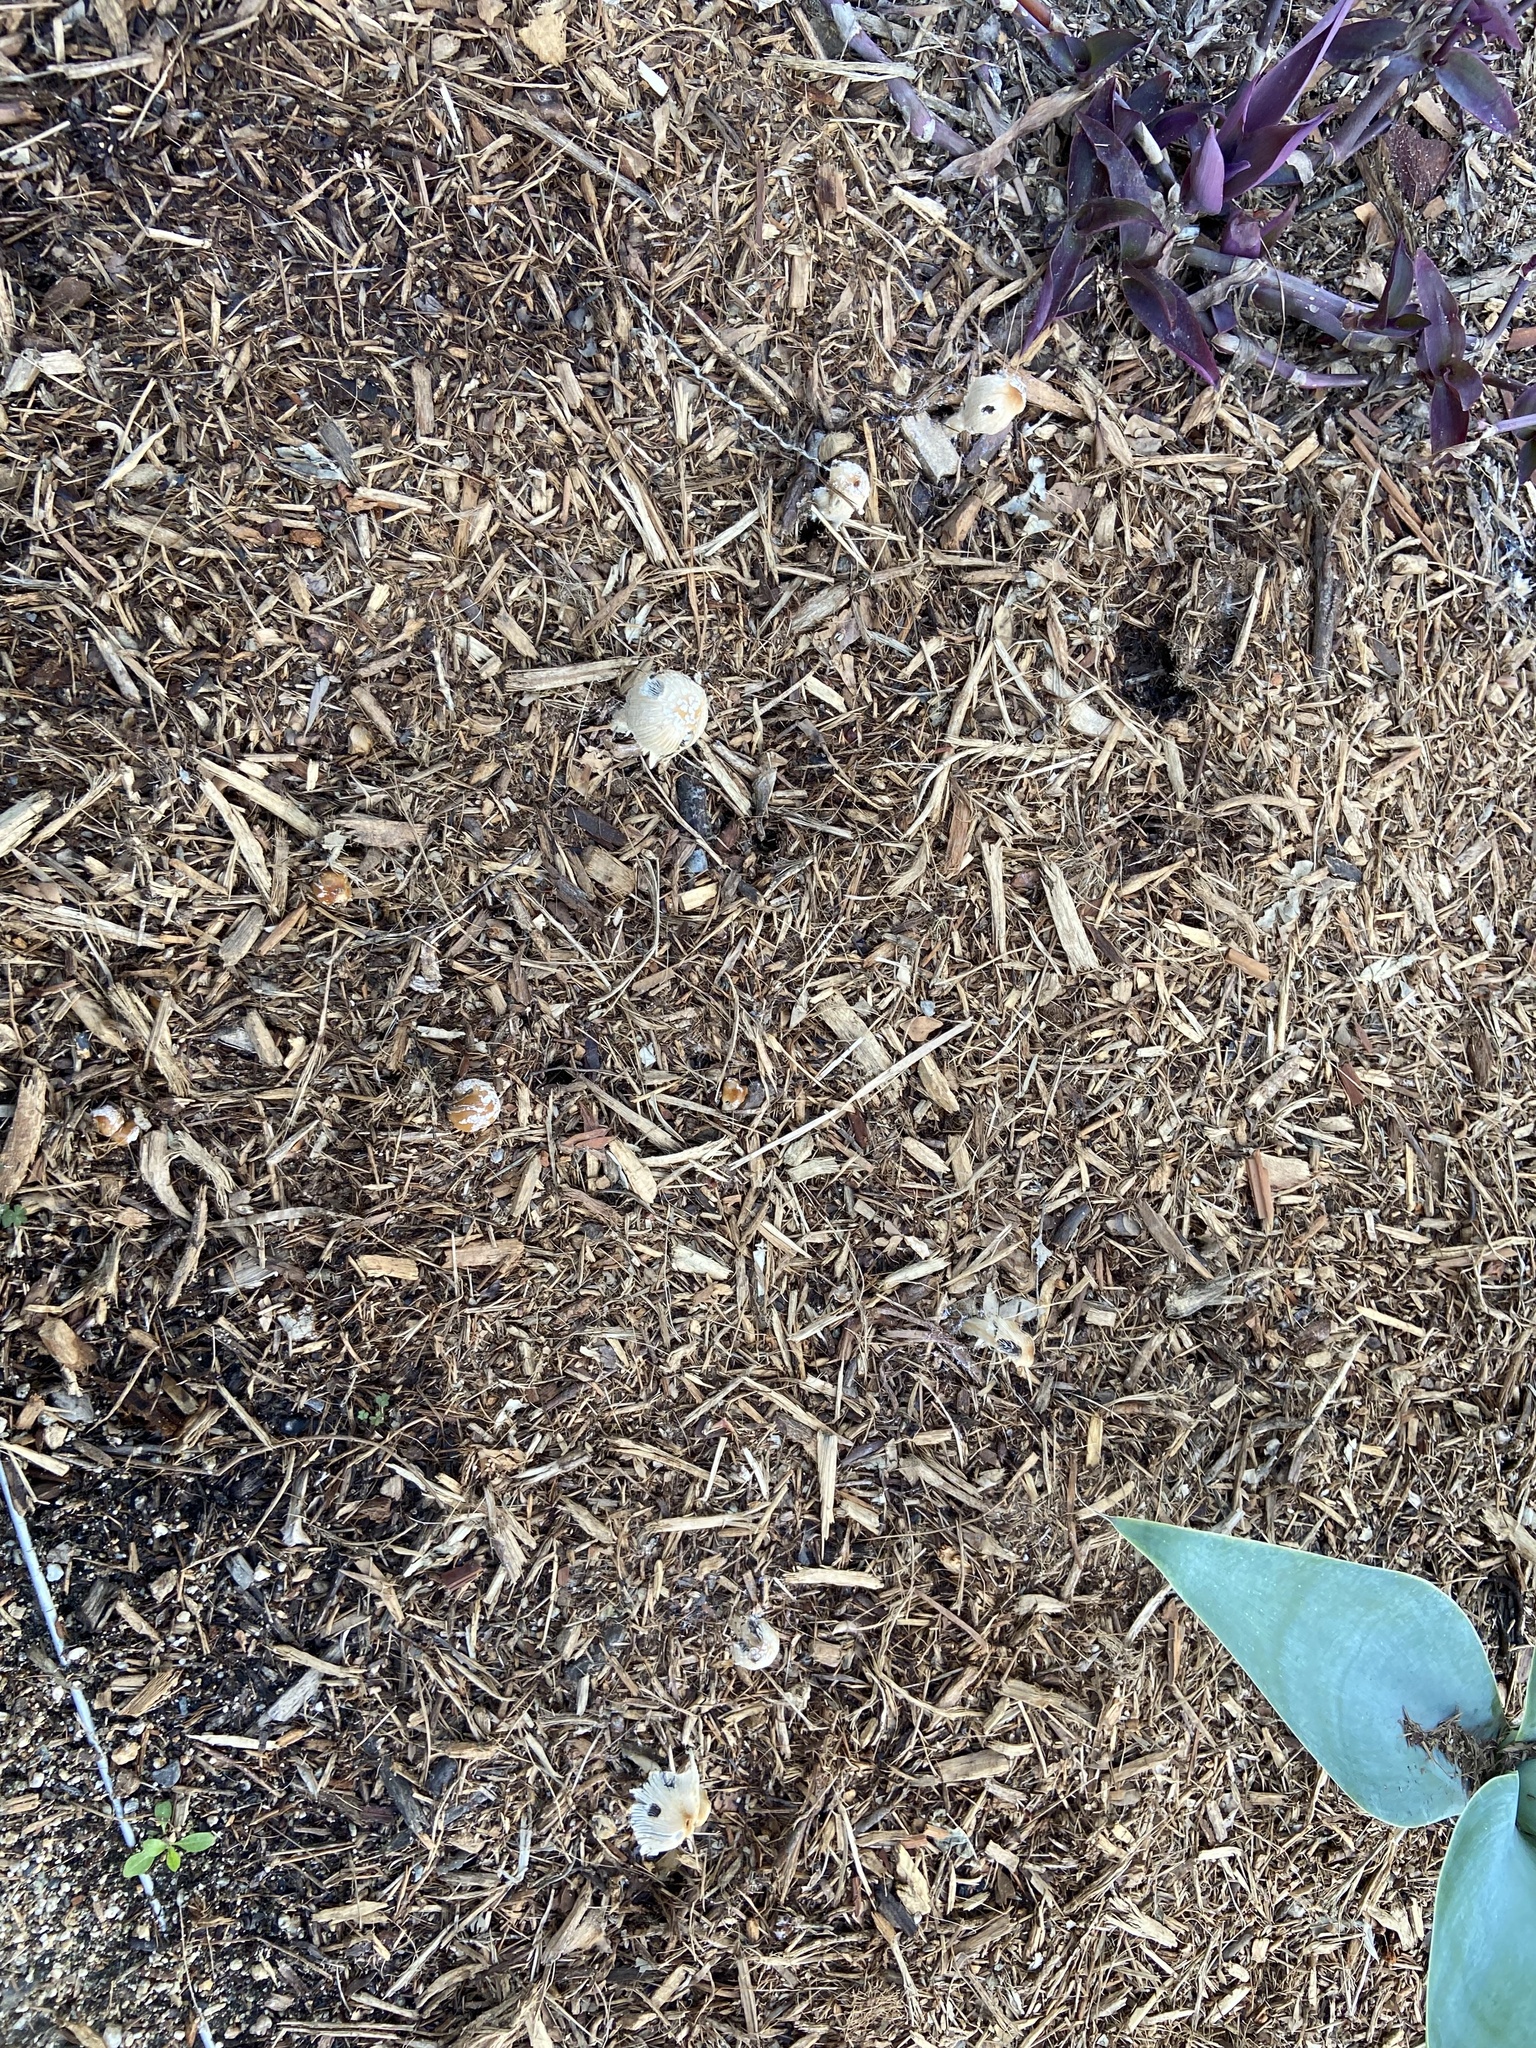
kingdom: Fungi
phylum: Basidiomycota
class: Agaricomycetes
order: Agaricales
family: Psathyrellaceae
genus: Coprinellus
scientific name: Coprinellus flocculosus
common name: Flocculose inkcap
